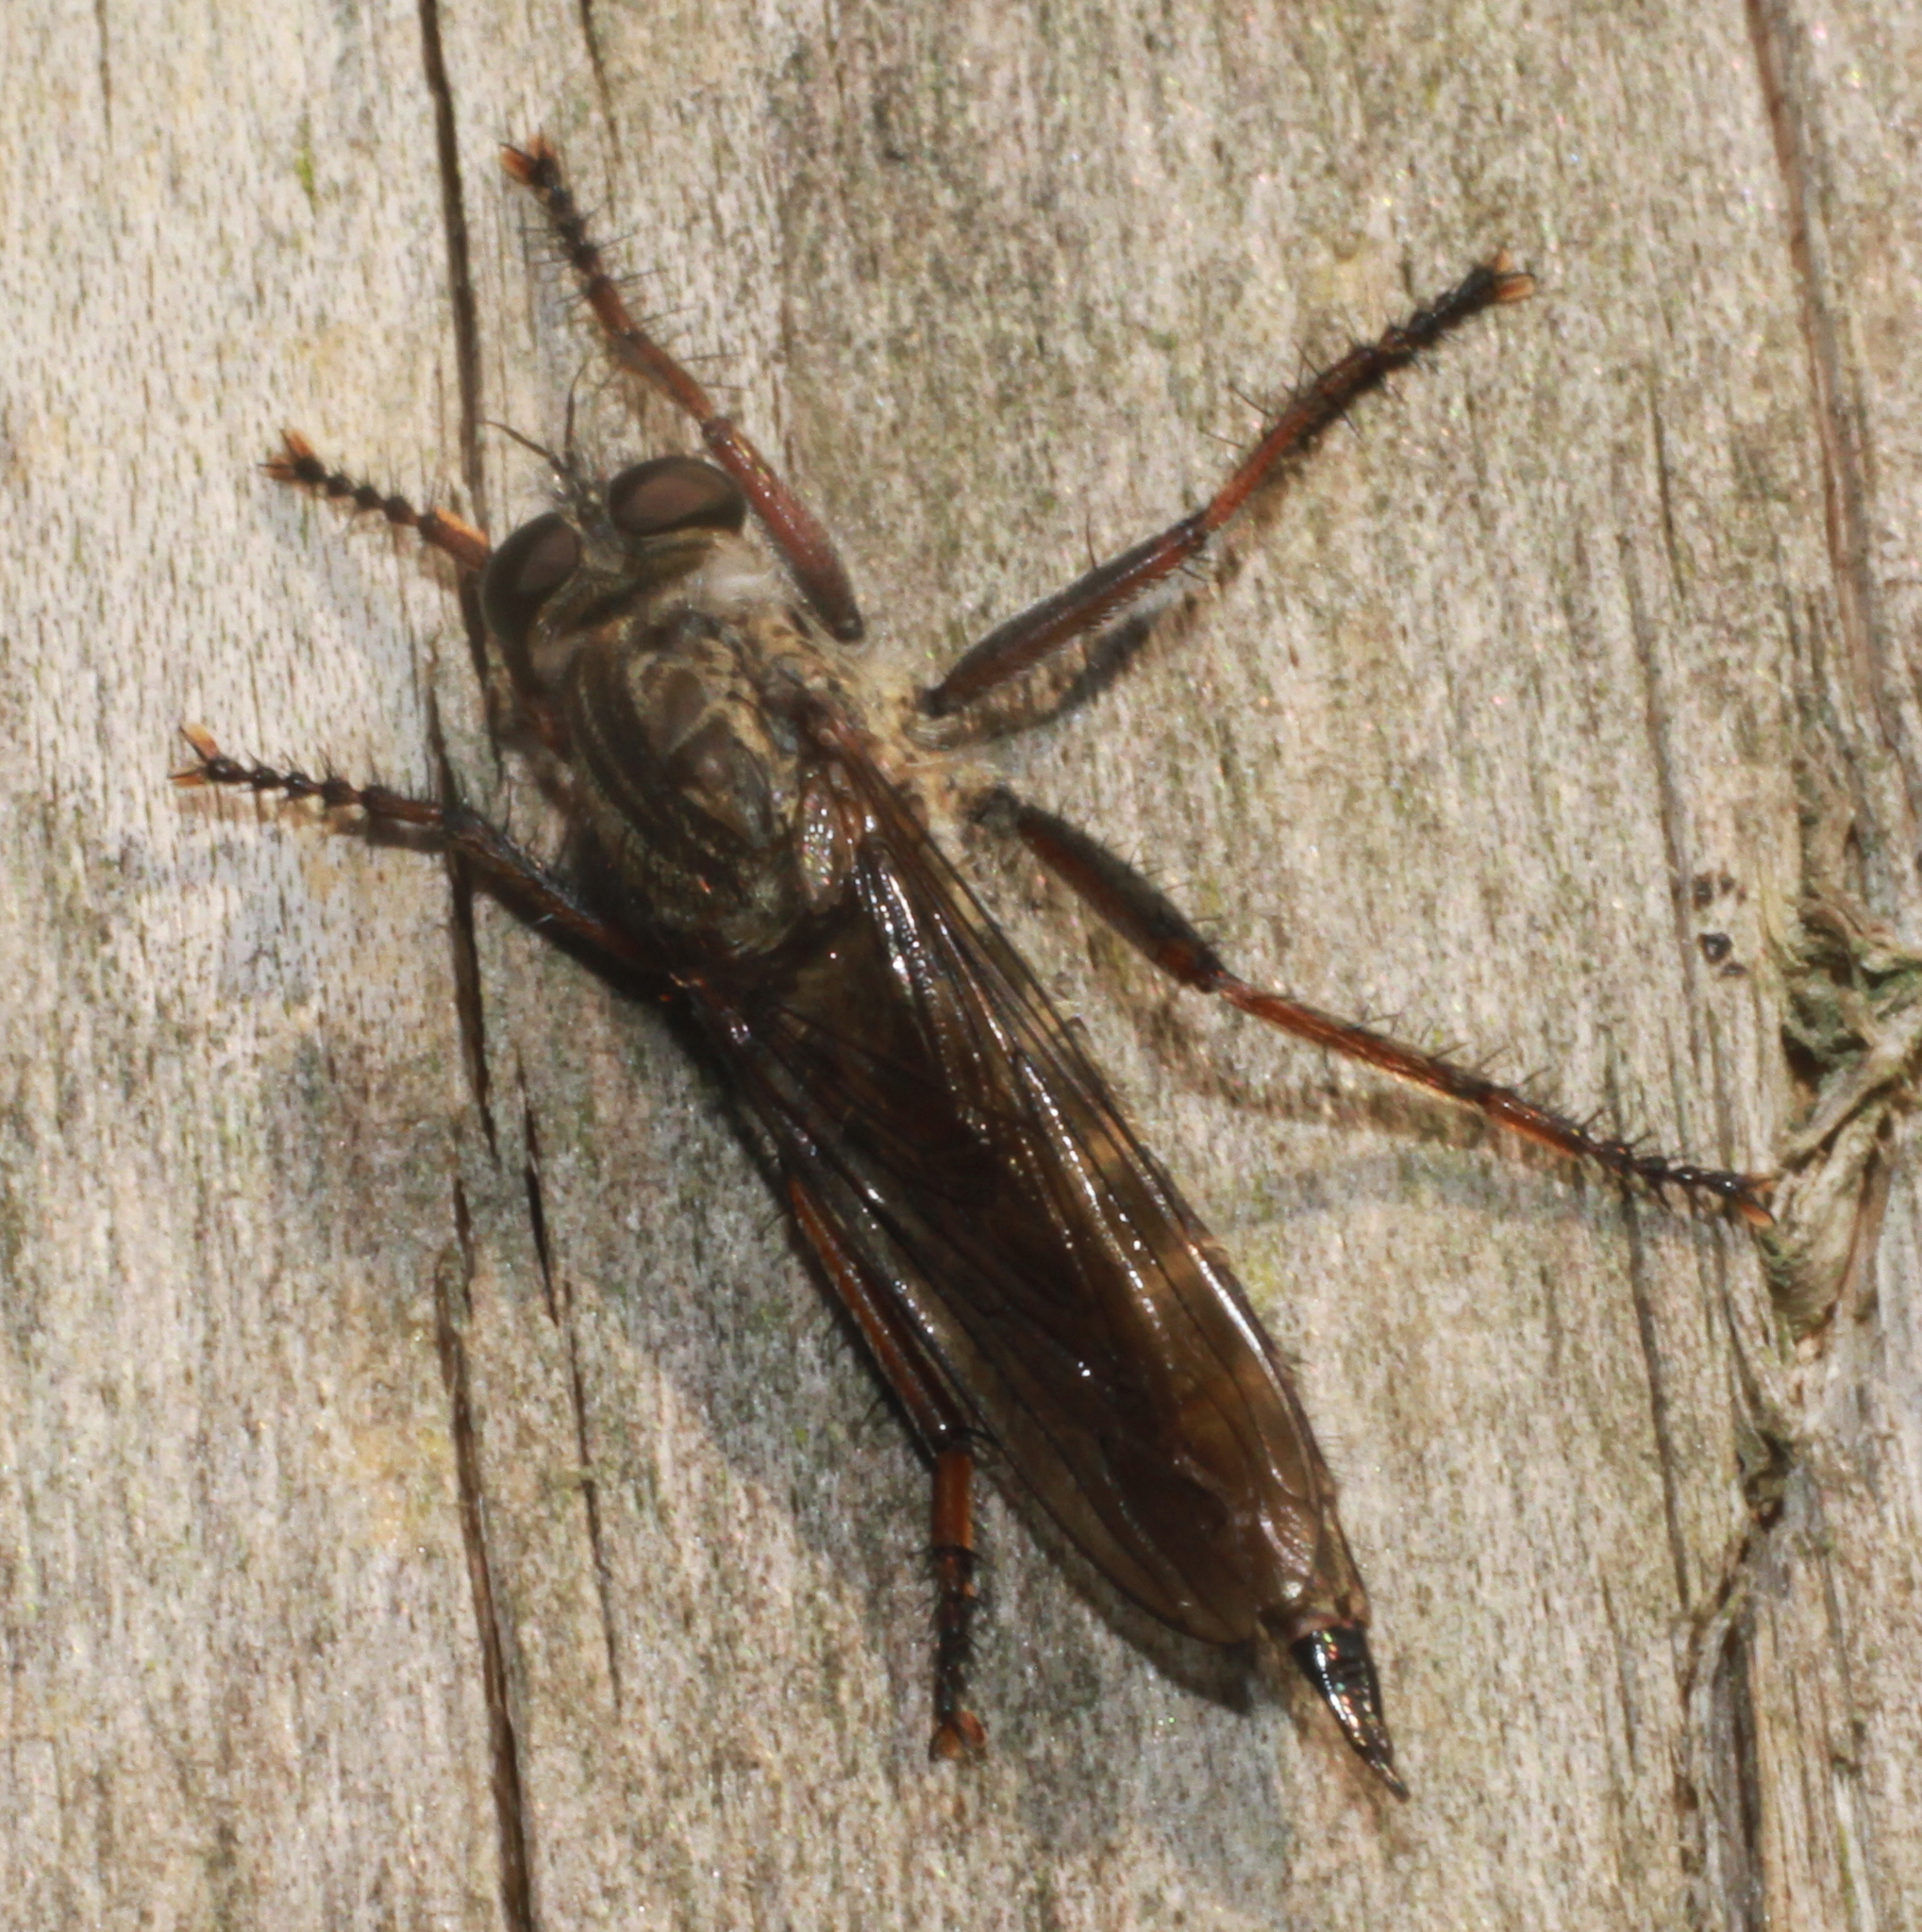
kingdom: Animalia
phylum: Arthropoda
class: Insecta
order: Diptera
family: Asilidae
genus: Machimus
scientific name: Machimus atricapillus
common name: Kite-tailed robberfly
